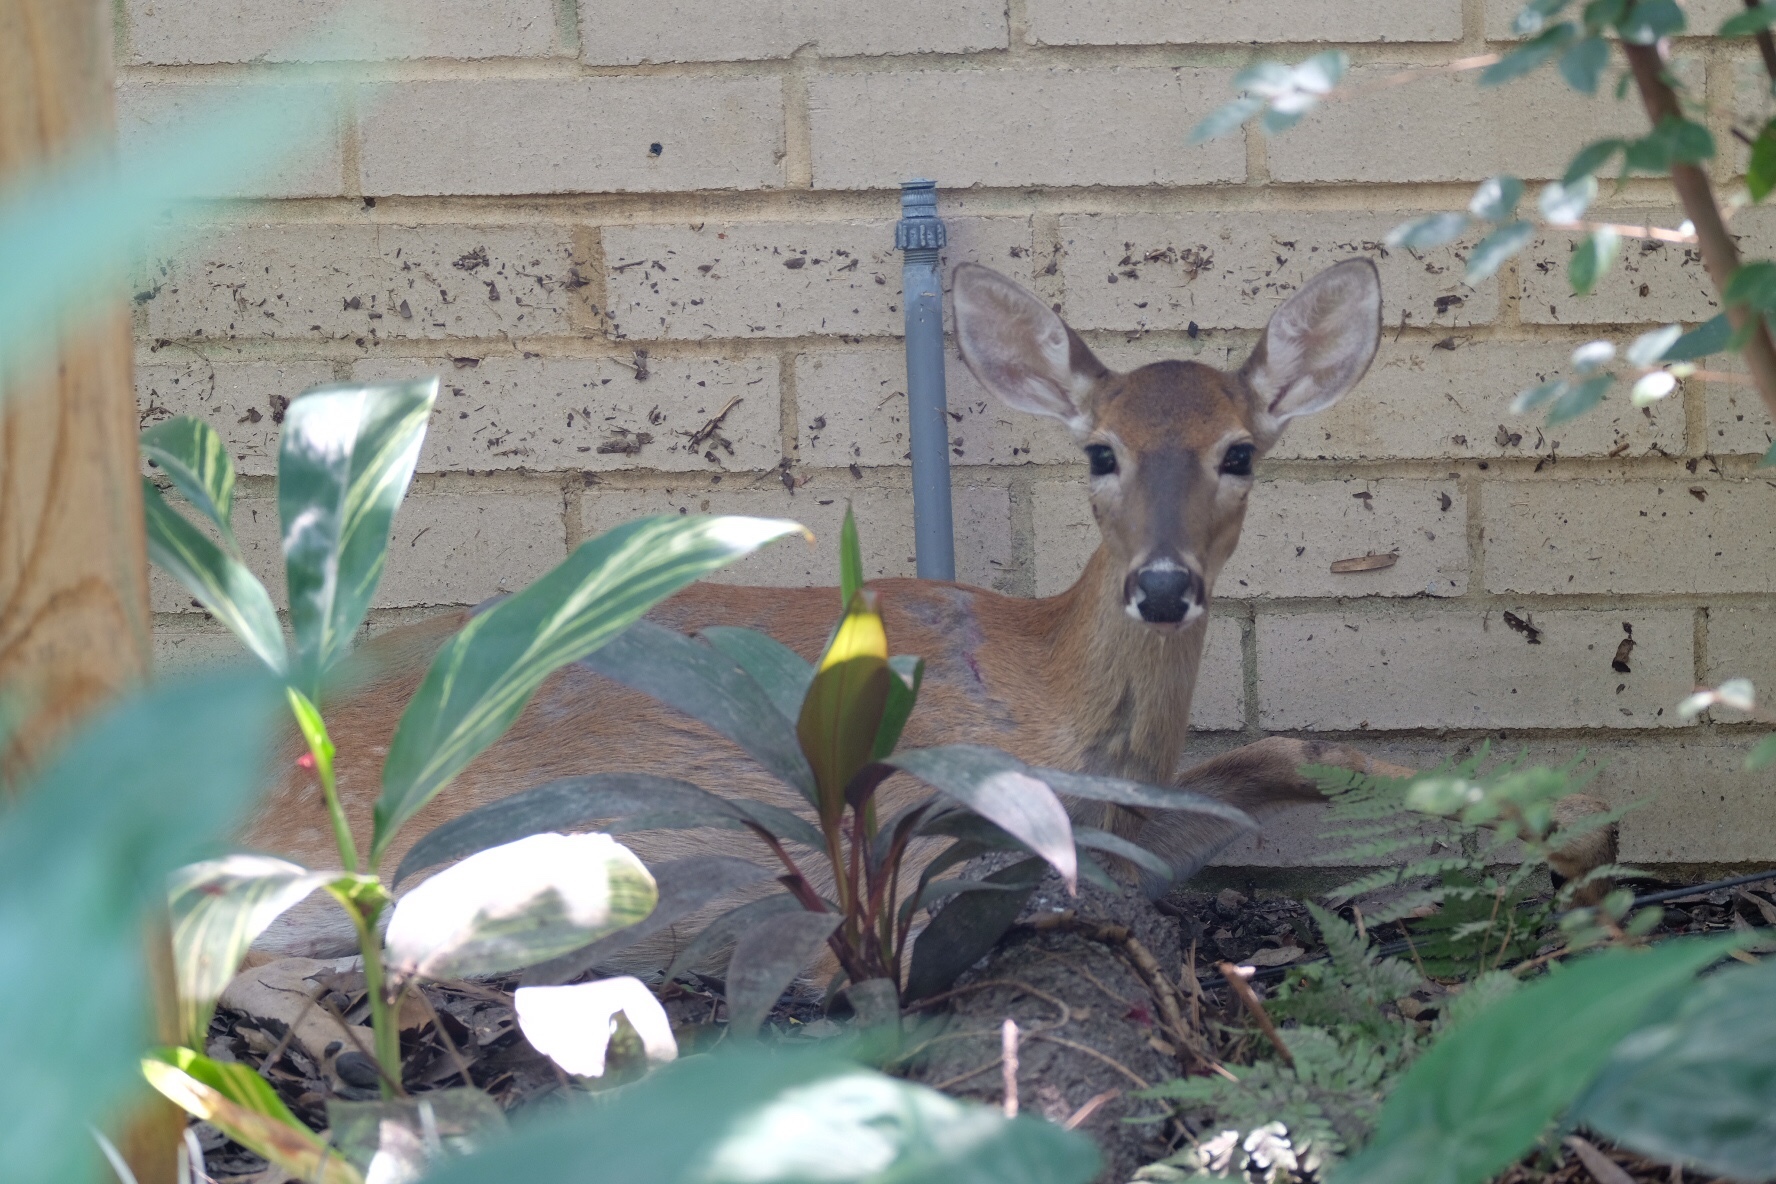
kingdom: Animalia
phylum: Chordata
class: Mammalia
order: Artiodactyla
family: Cervidae
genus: Odocoileus
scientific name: Odocoileus virginianus
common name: White-tailed deer
